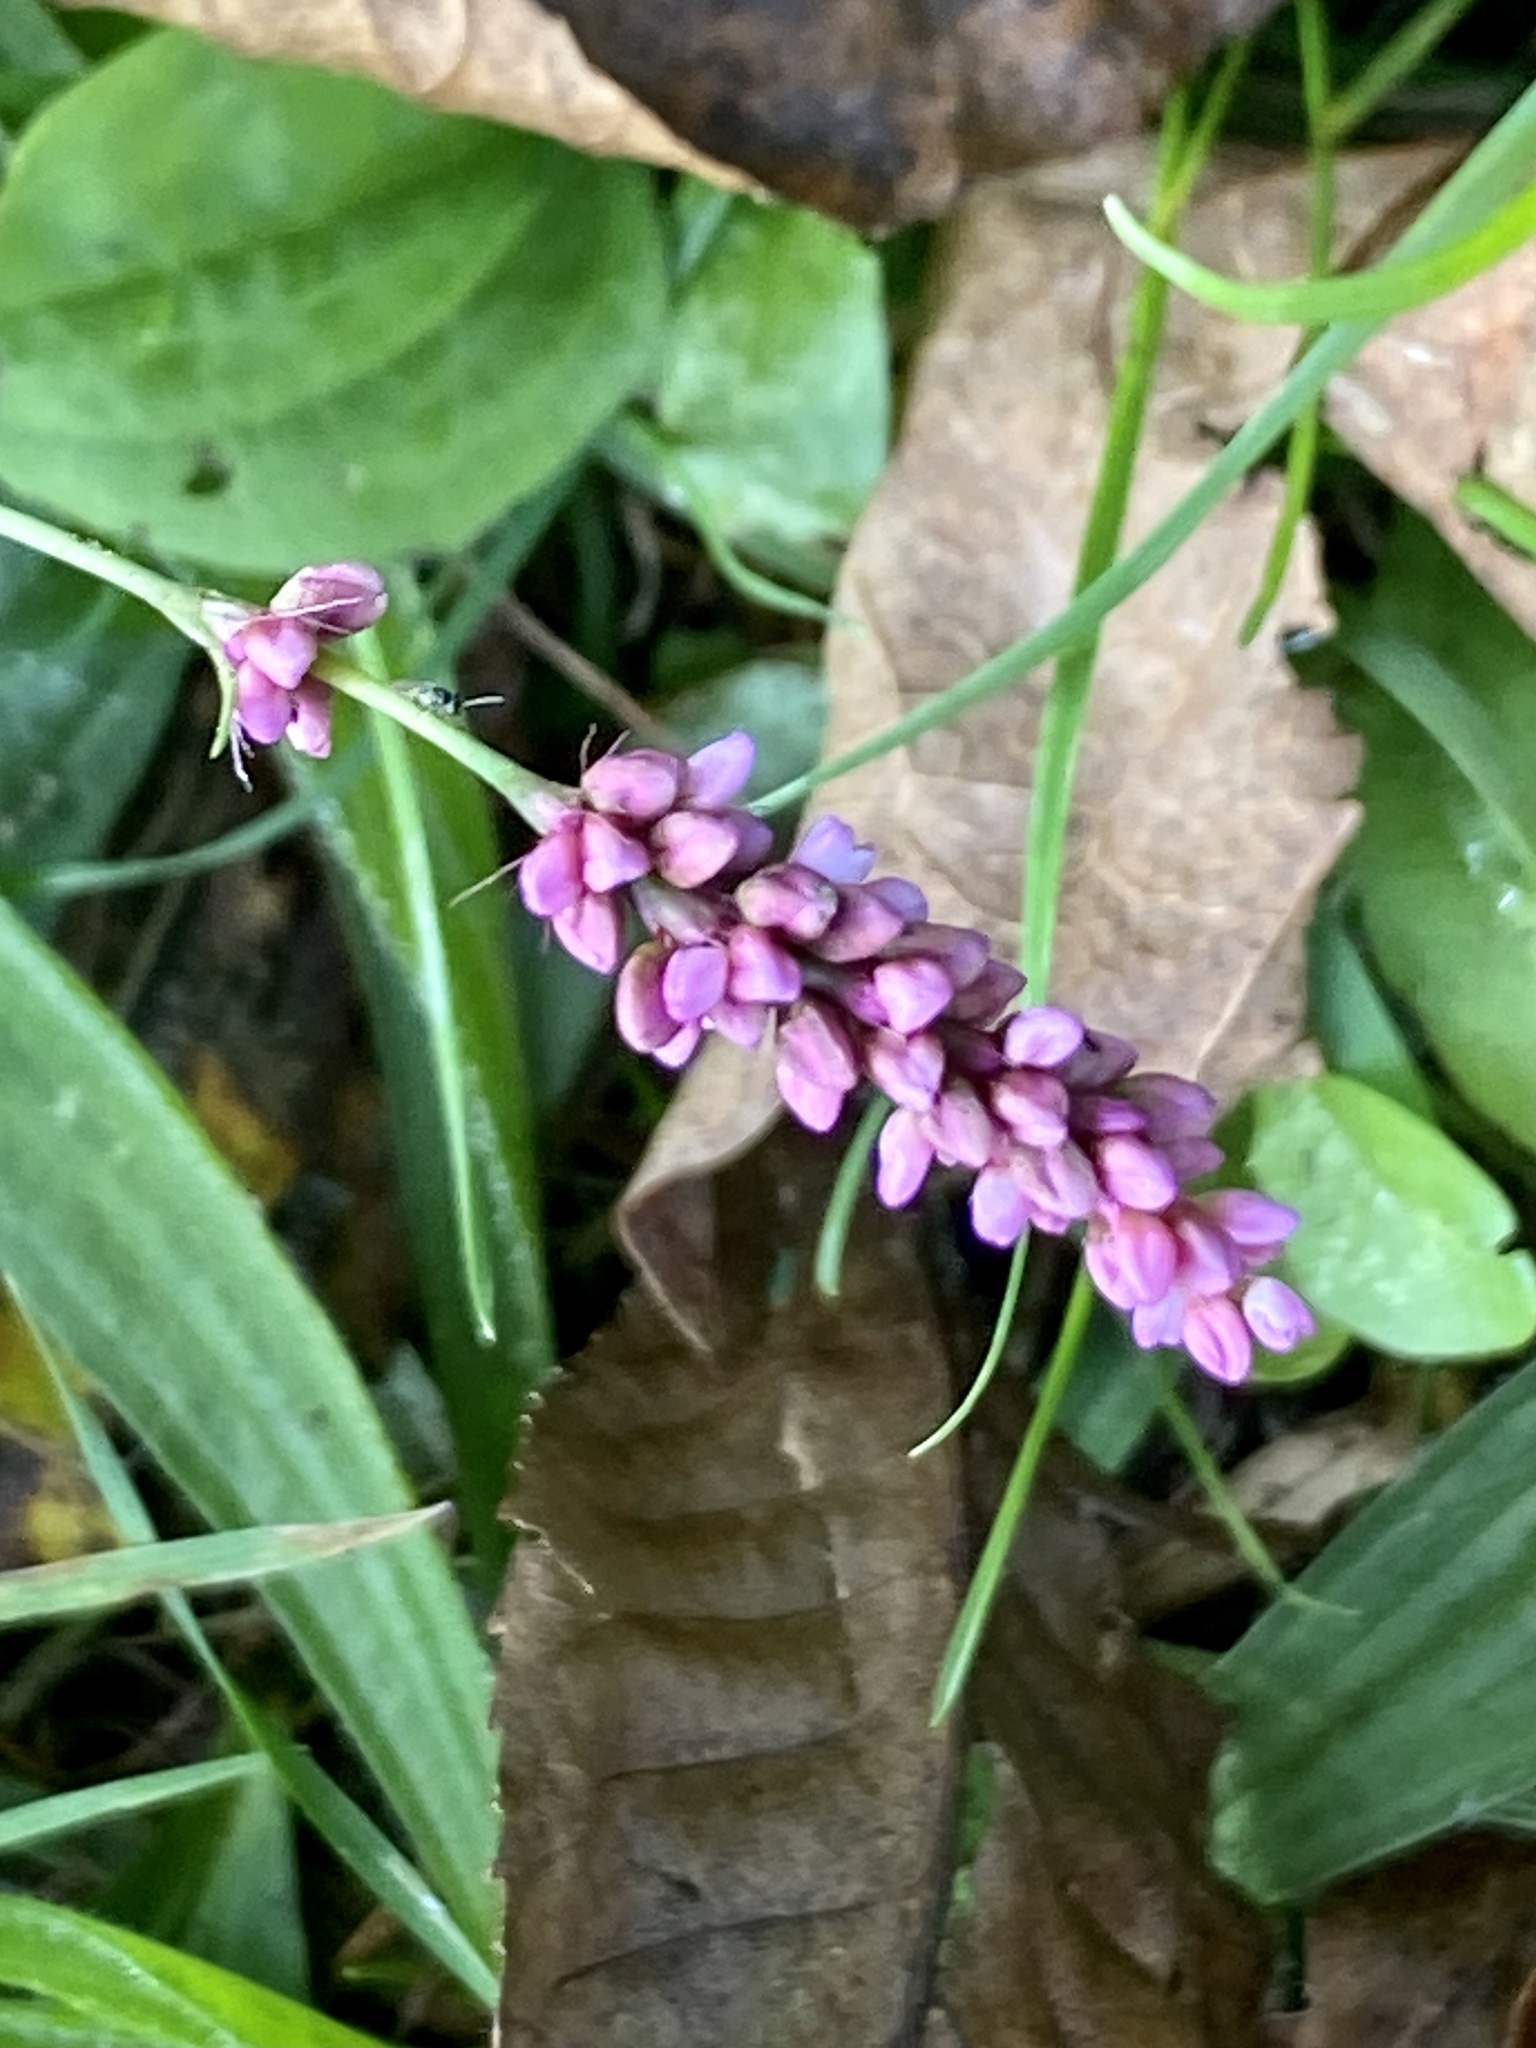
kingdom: Plantae
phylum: Tracheophyta
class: Magnoliopsida
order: Caryophyllales
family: Polygonaceae
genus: Persicaria
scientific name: Persicaria longiseta
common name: Bristly lady's-thumb
